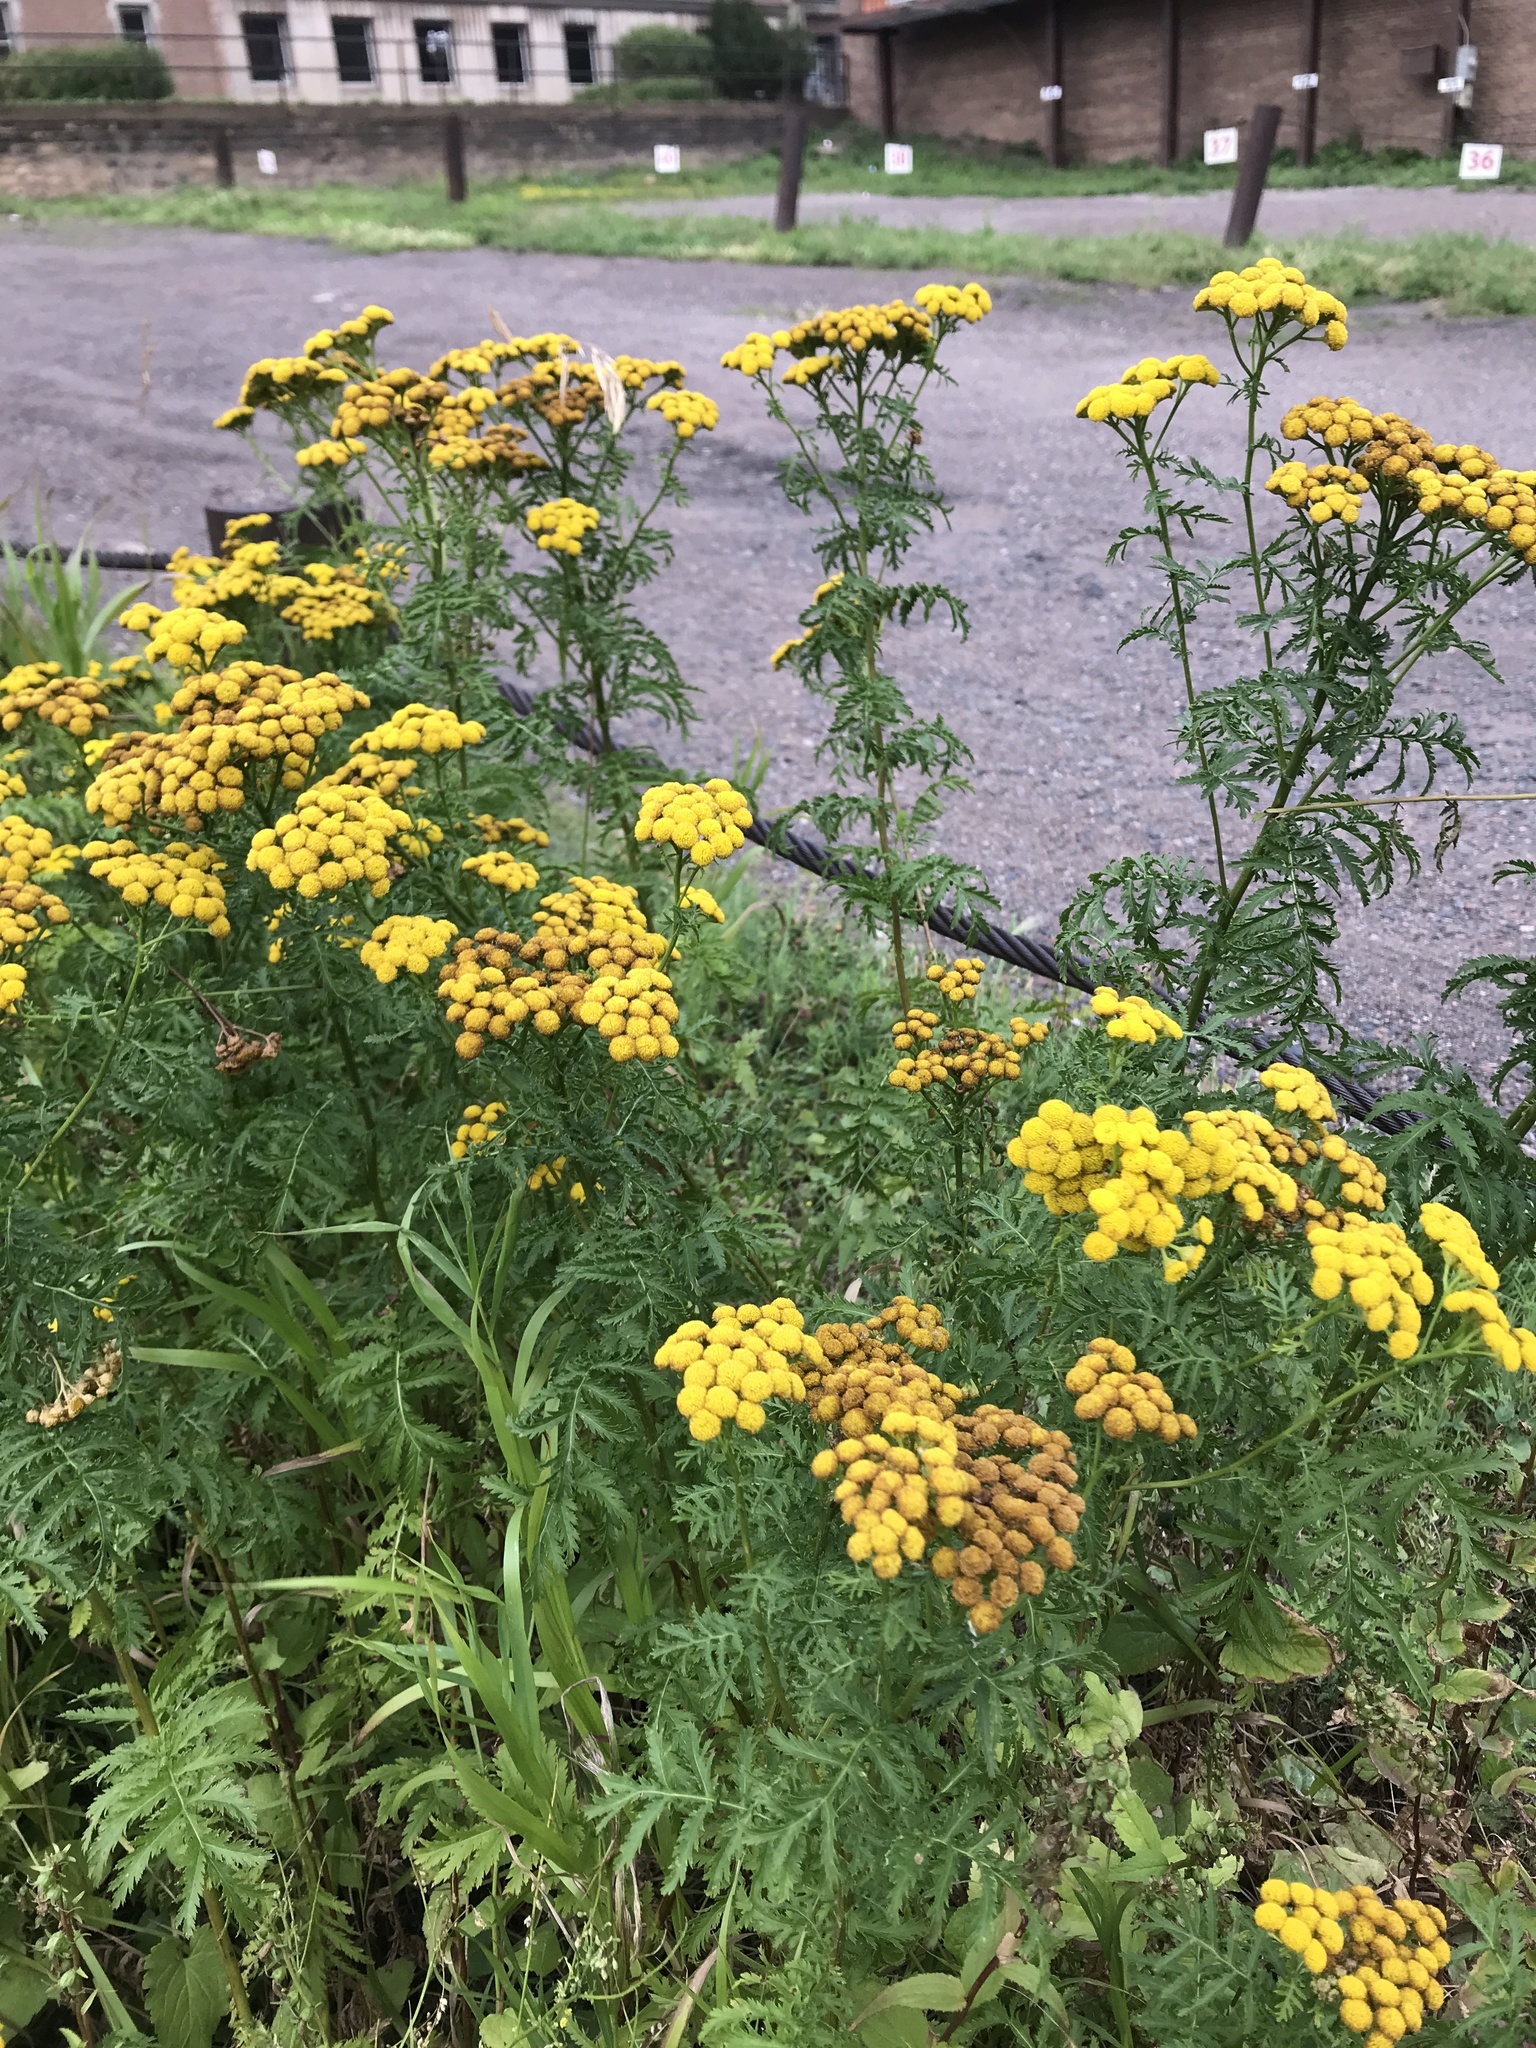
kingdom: Plantae
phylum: Tracheophyta
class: Magnoliopsida
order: Asterales
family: Asteraceae
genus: Tanacetum
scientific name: Tanacetum vulgare
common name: Common tansy
